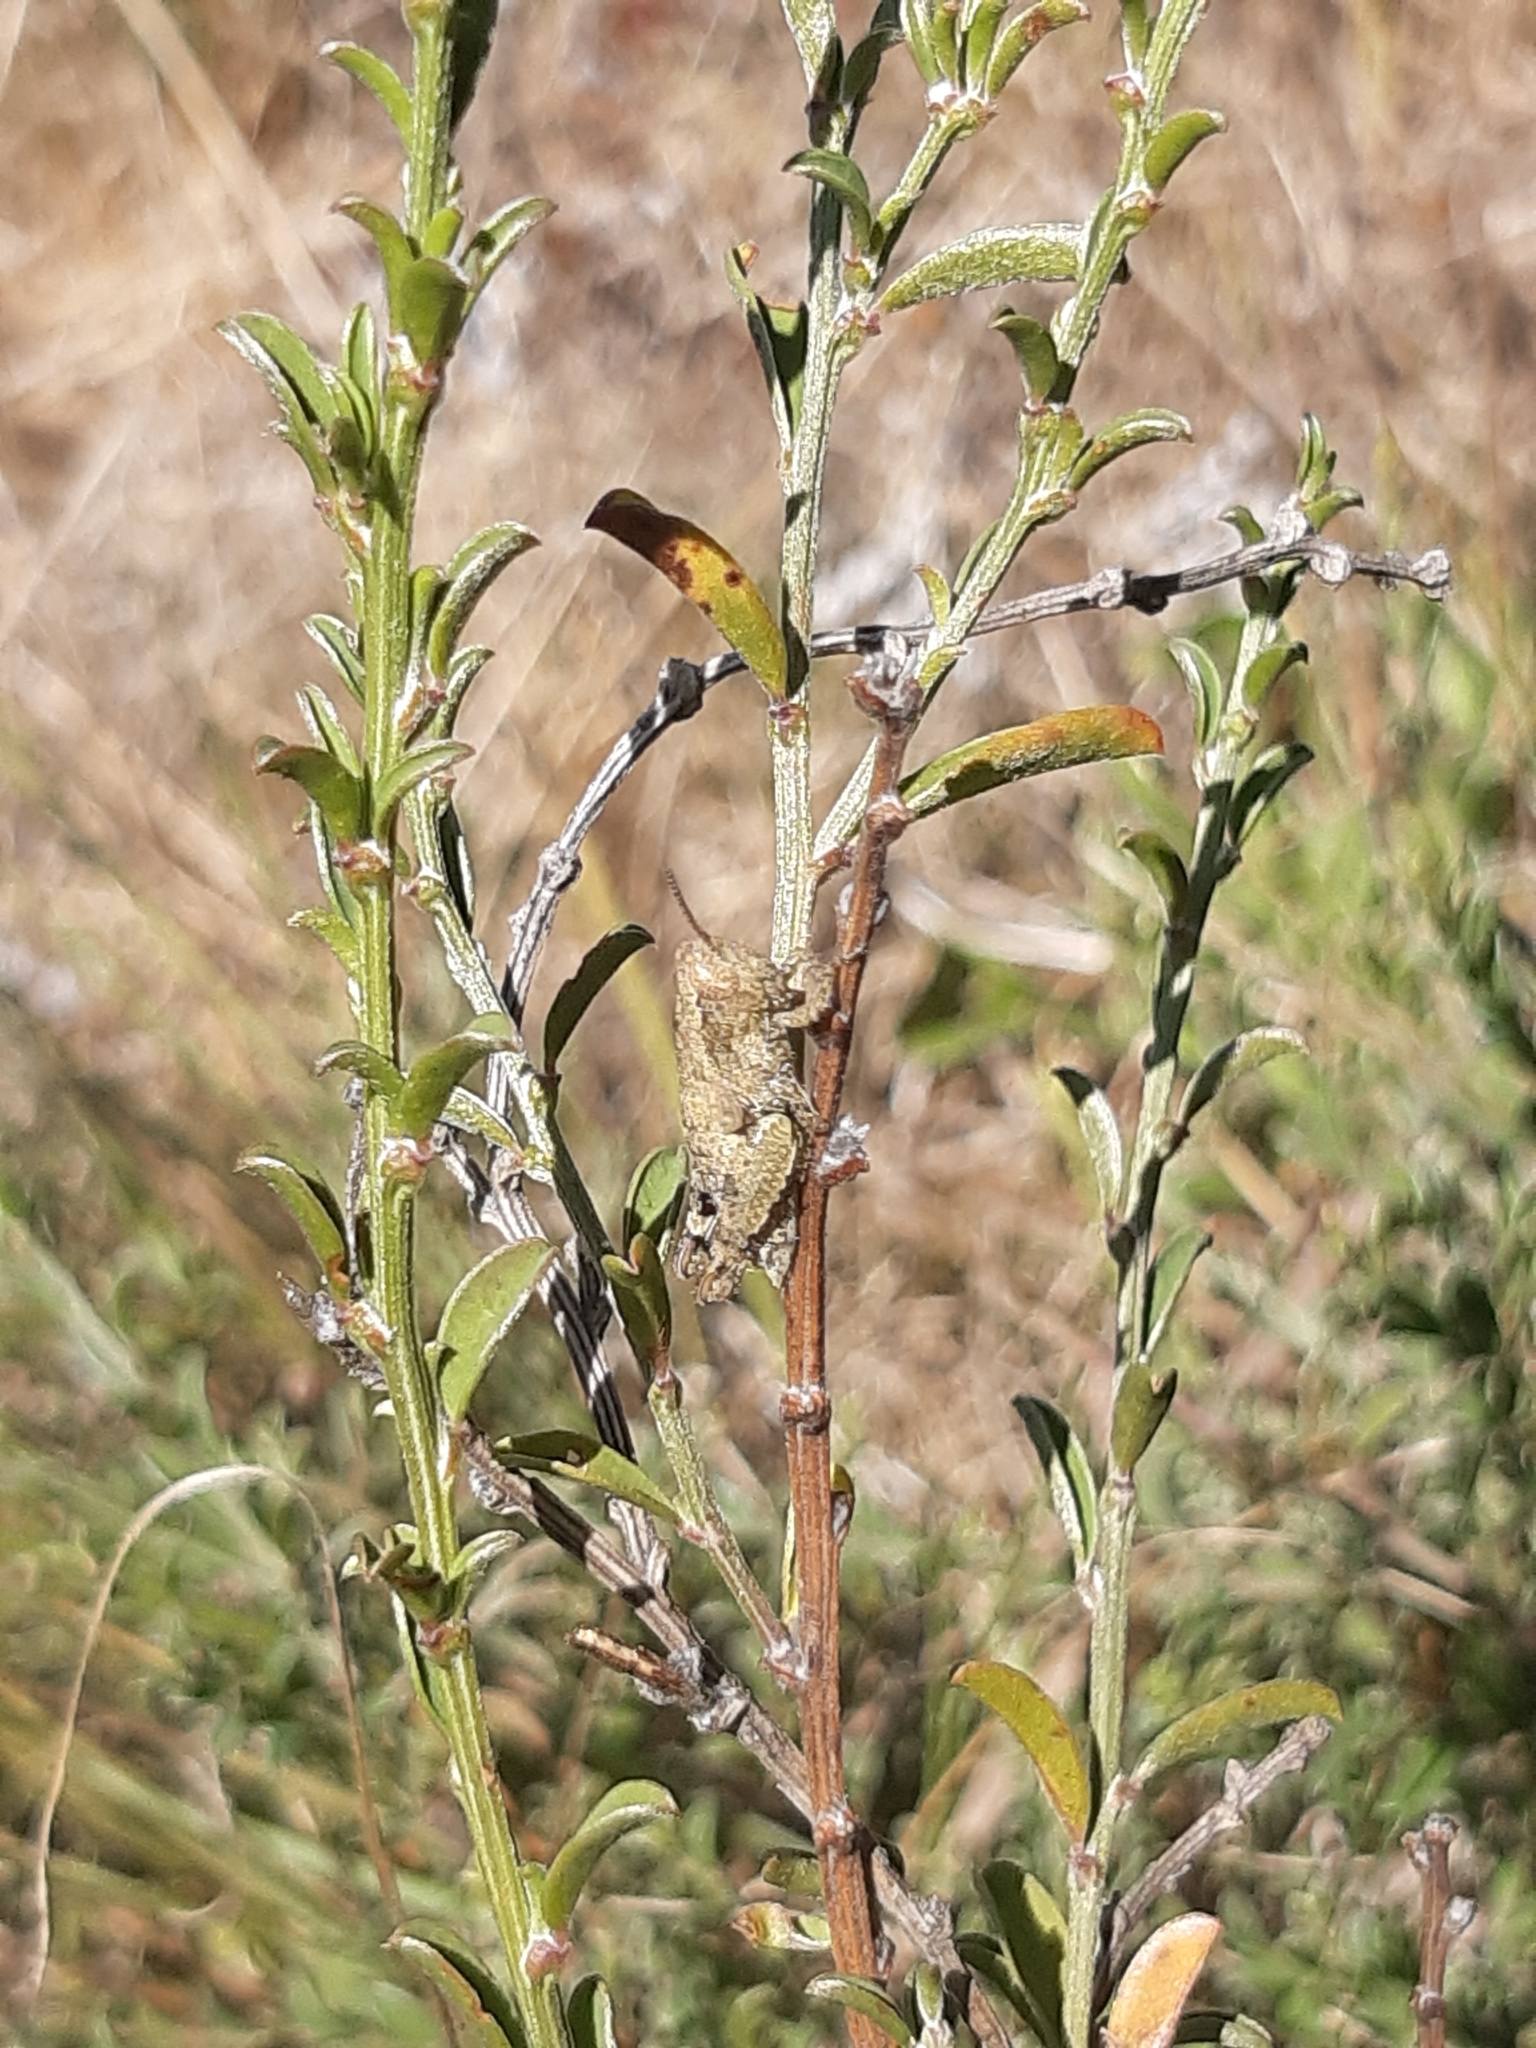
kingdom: Animalia
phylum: Arthropoda
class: Insecta
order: Orthoptera
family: Acrididae
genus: Pezotettix
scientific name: Pezotettix giornae
